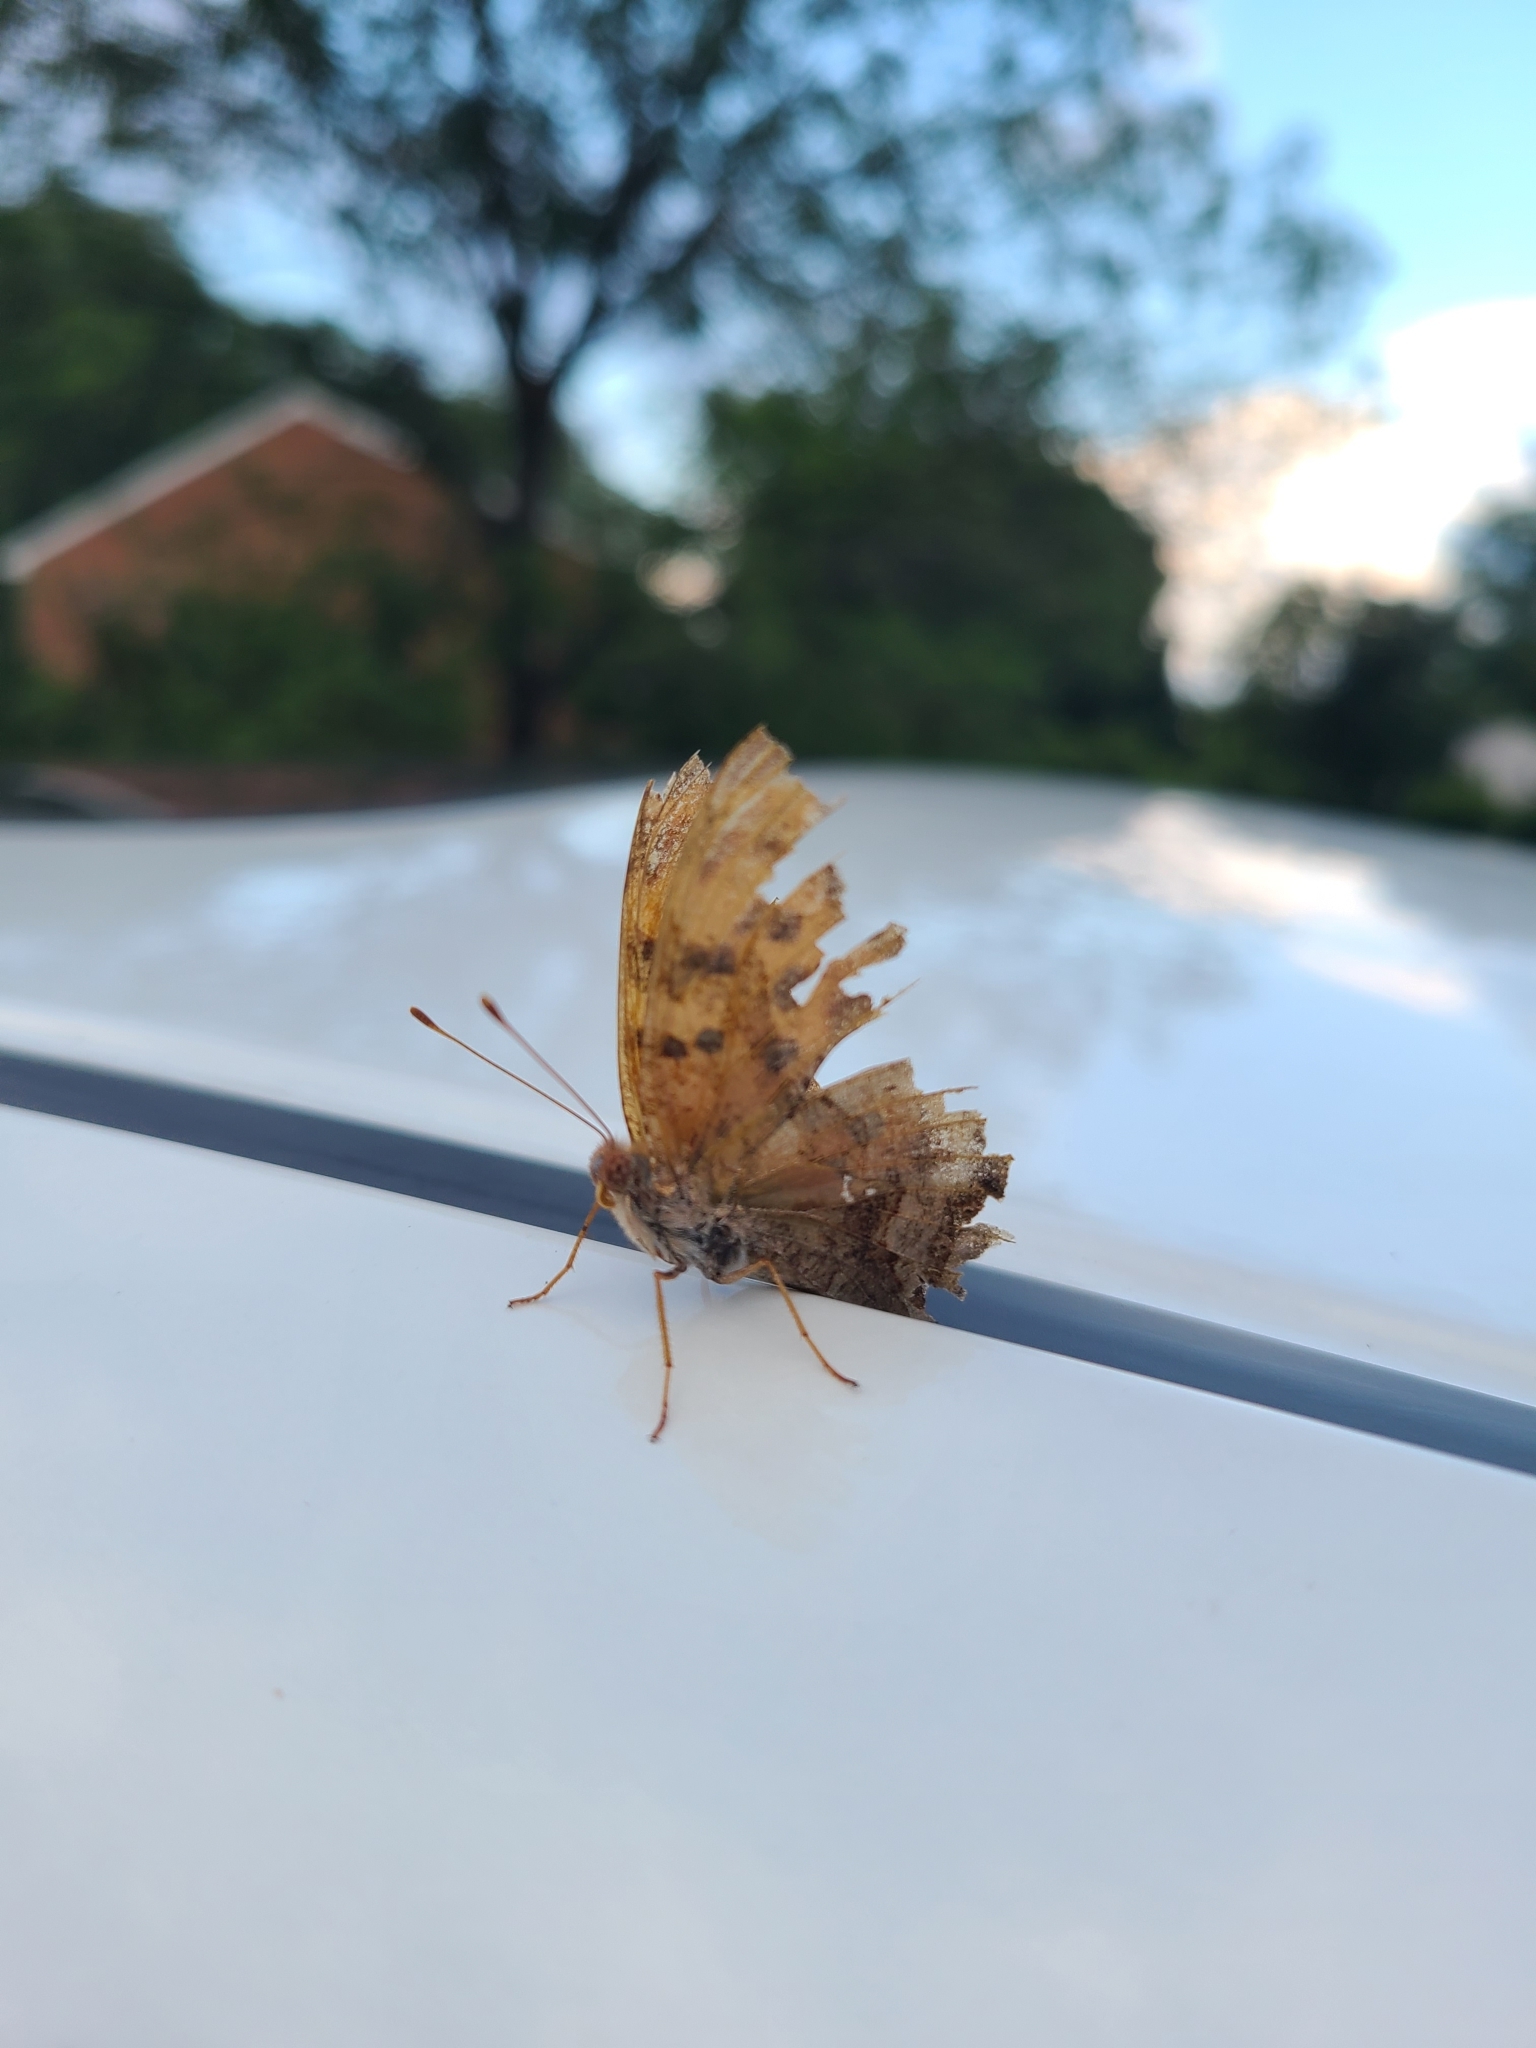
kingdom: Animalia
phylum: Arthropoda
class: Insecta
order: Lepidoptera
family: Nymphalidae
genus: Polygonia
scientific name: Polygonia interrogationis
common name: Question mark
